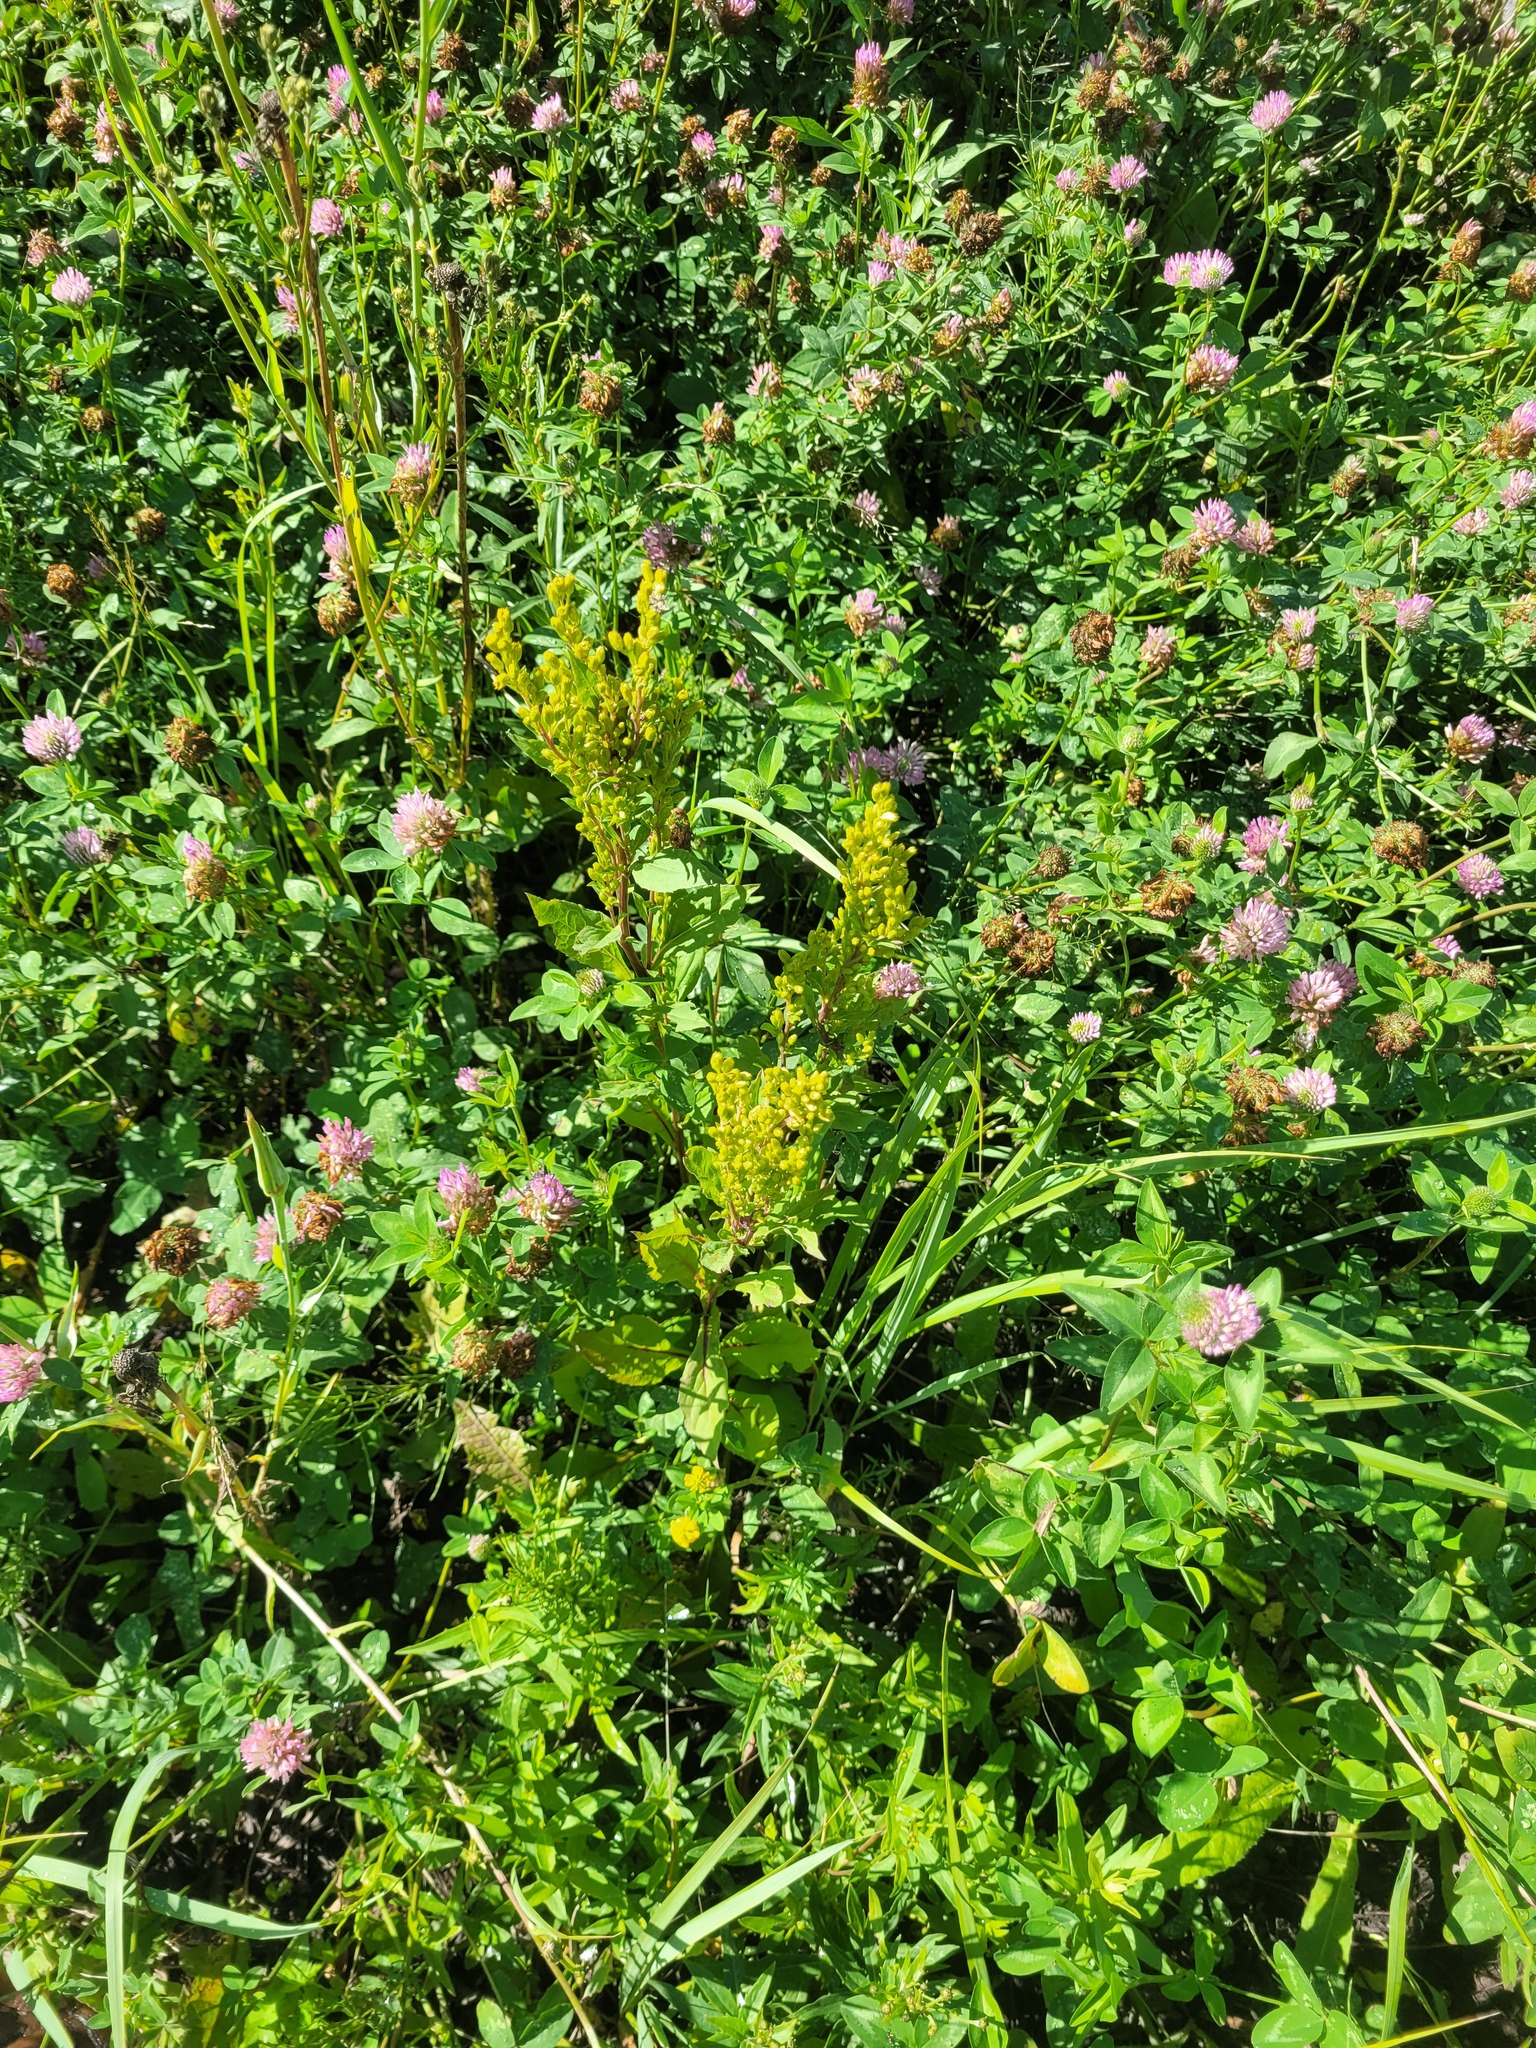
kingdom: Plantae
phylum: Tracheophyta
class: Magnoliopsida
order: Asterales
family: Asteraceae
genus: Solidago
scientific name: Solidago virgaurea
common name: Goldenrod
